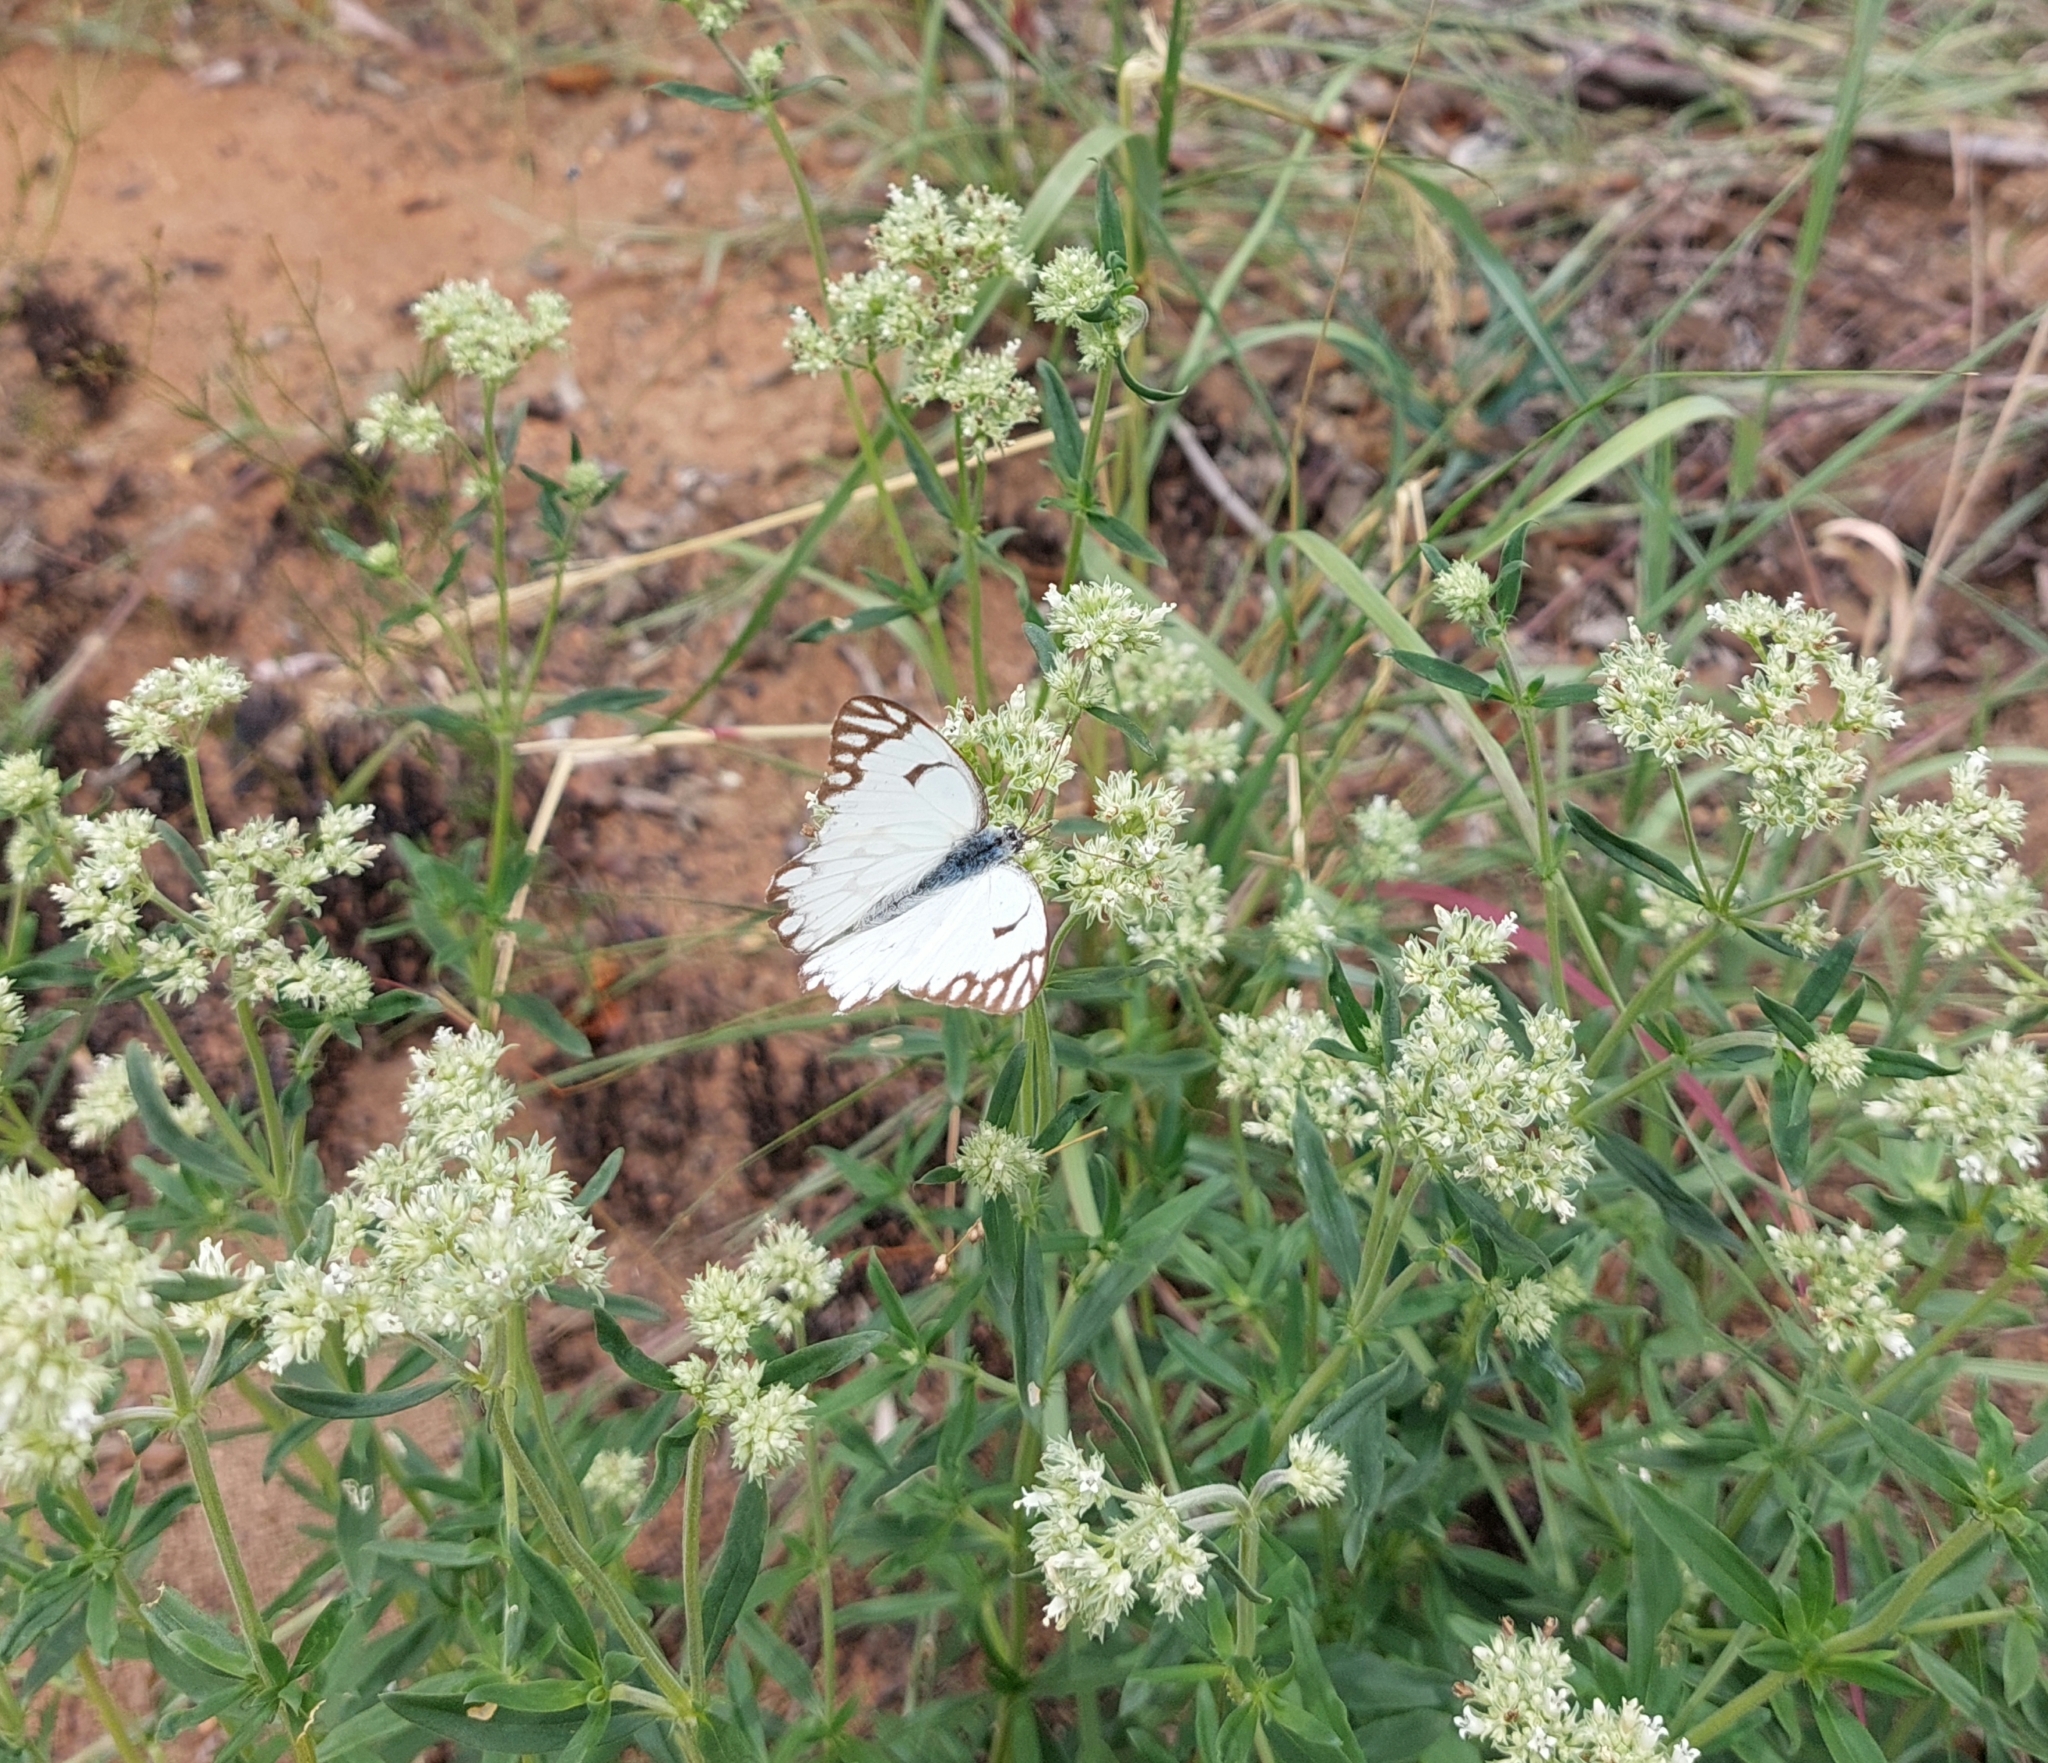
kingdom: Animalia
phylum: Arthropoda
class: Insecta
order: Lepidoptera
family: Pieridae
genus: Belenois
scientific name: Belenois aurota
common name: Brown-veined white
